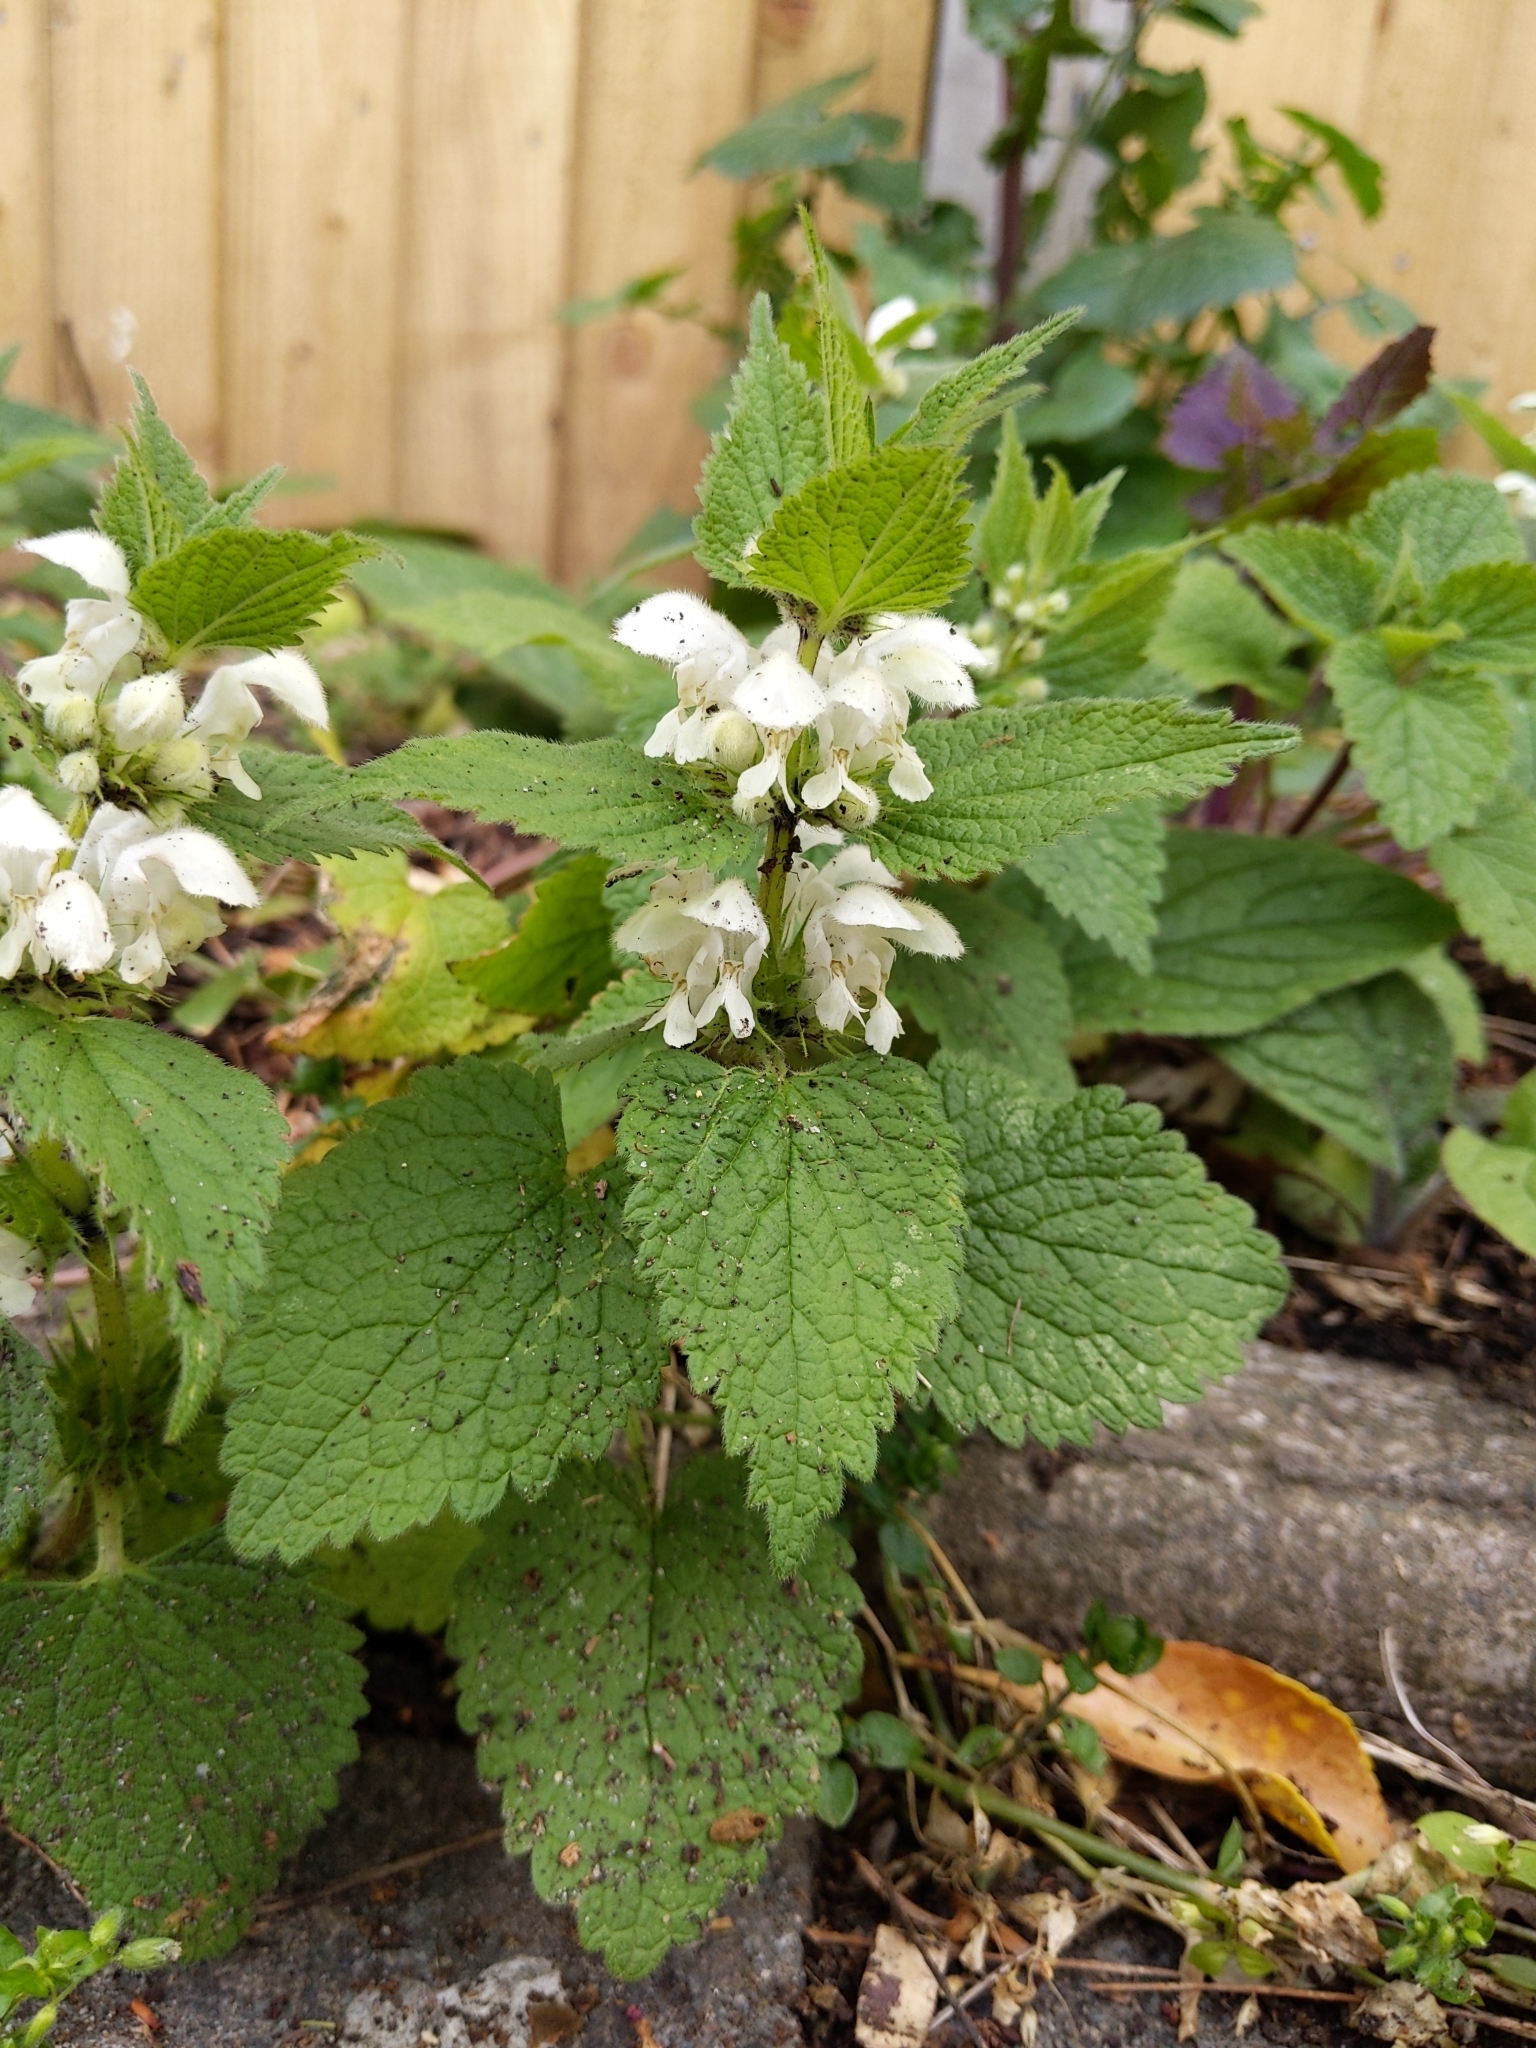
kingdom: Plantae
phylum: Tracheophyta
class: Magnoliopsida
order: Lamiales
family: Lamiaceae
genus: Lamium
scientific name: Lamium album
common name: White dead-nettle
